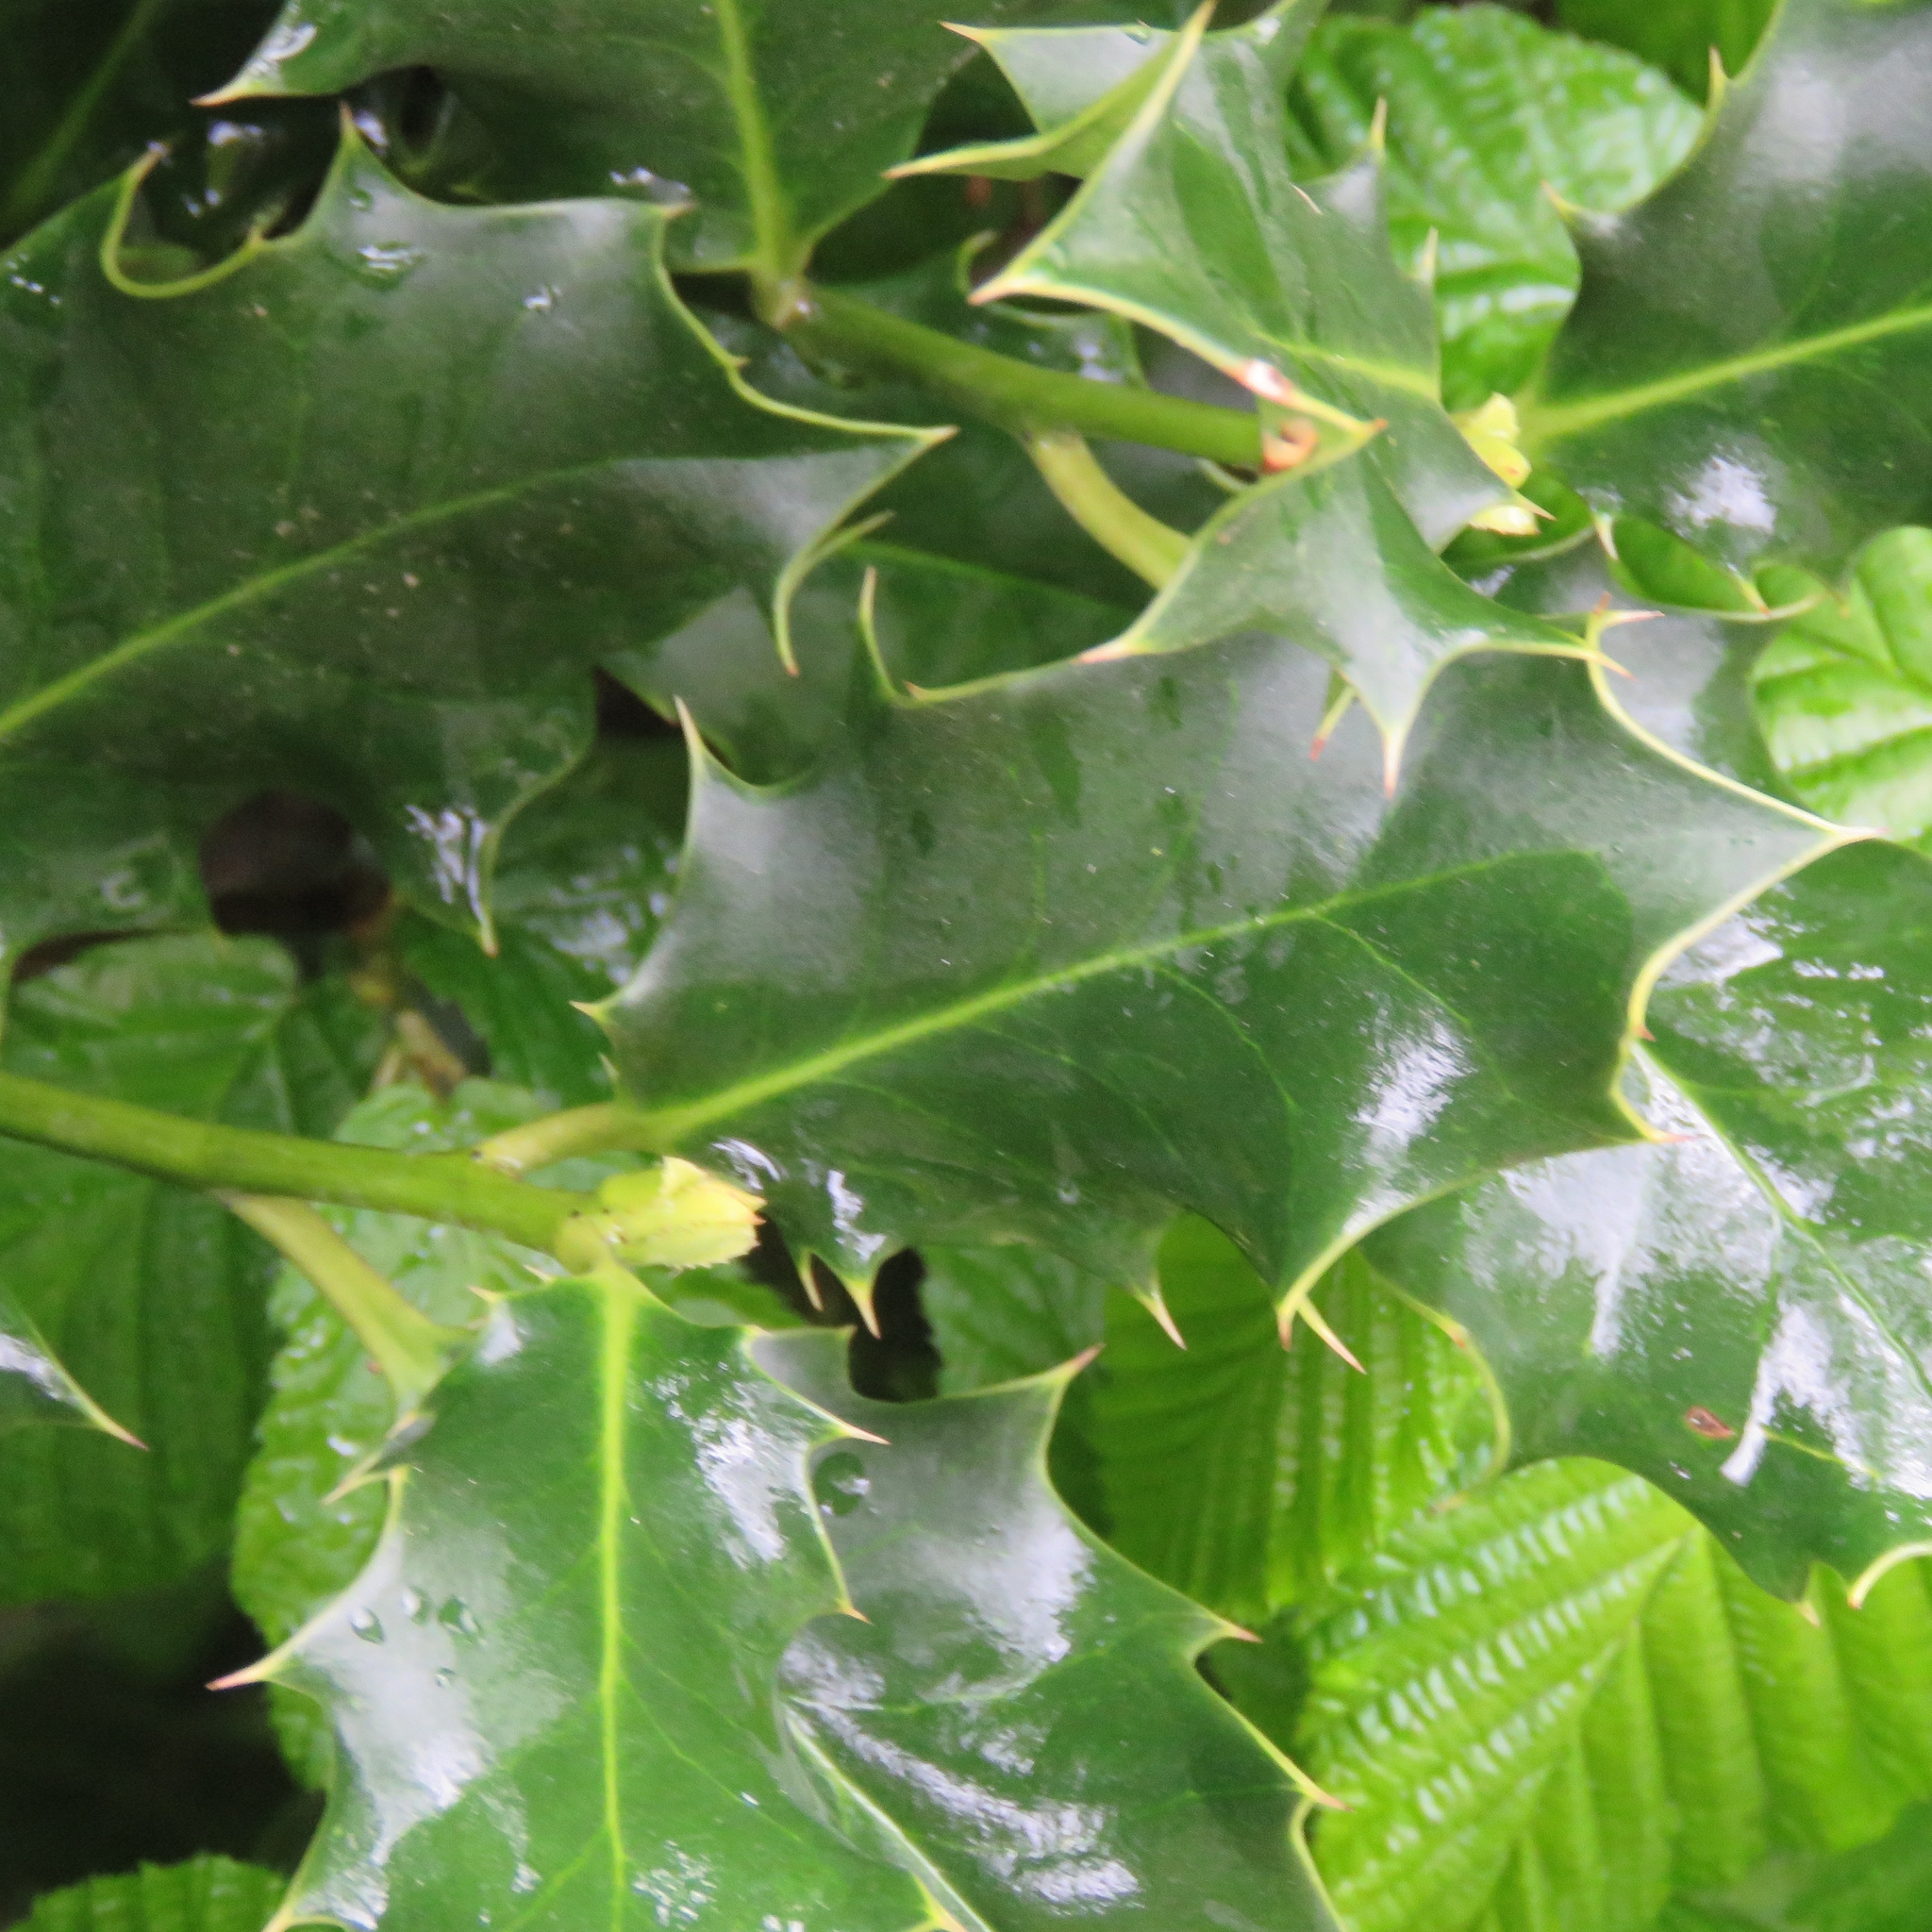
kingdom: Plantae
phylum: Tracheophyta
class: Magnoliopsida
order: Aquifoliales
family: Aquifoliaceae
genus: Ilex
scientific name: Ilex aquifolium
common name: English holly
